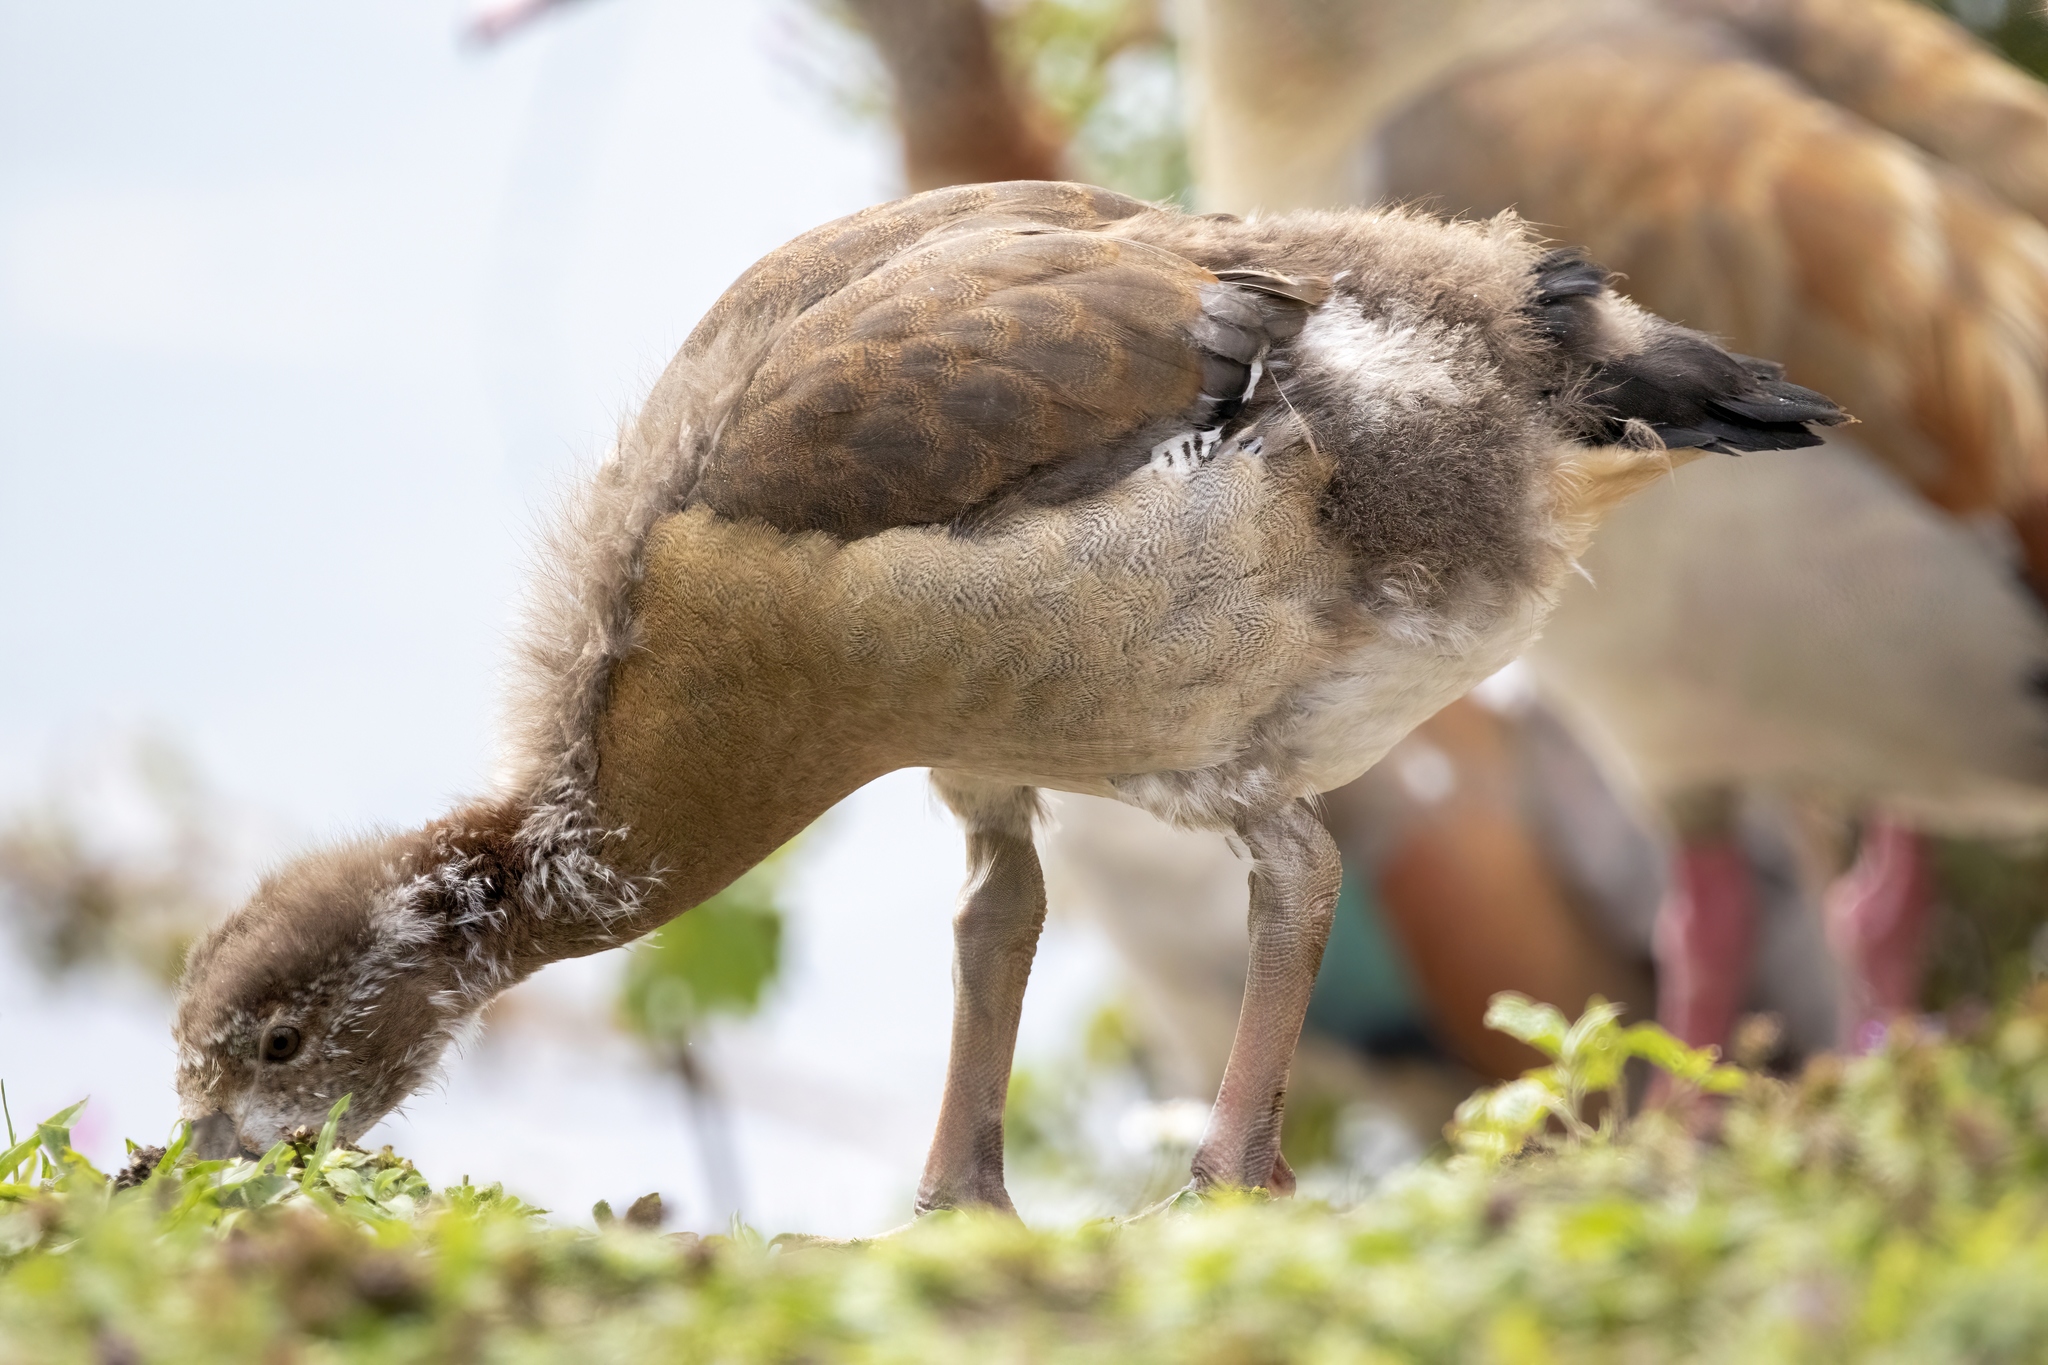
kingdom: Animalia
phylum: Chordata
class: Aves
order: Anseriformes
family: Anatidae
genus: Alopochen
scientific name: Alopochen aegyptiaca
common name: Egyptian goose
